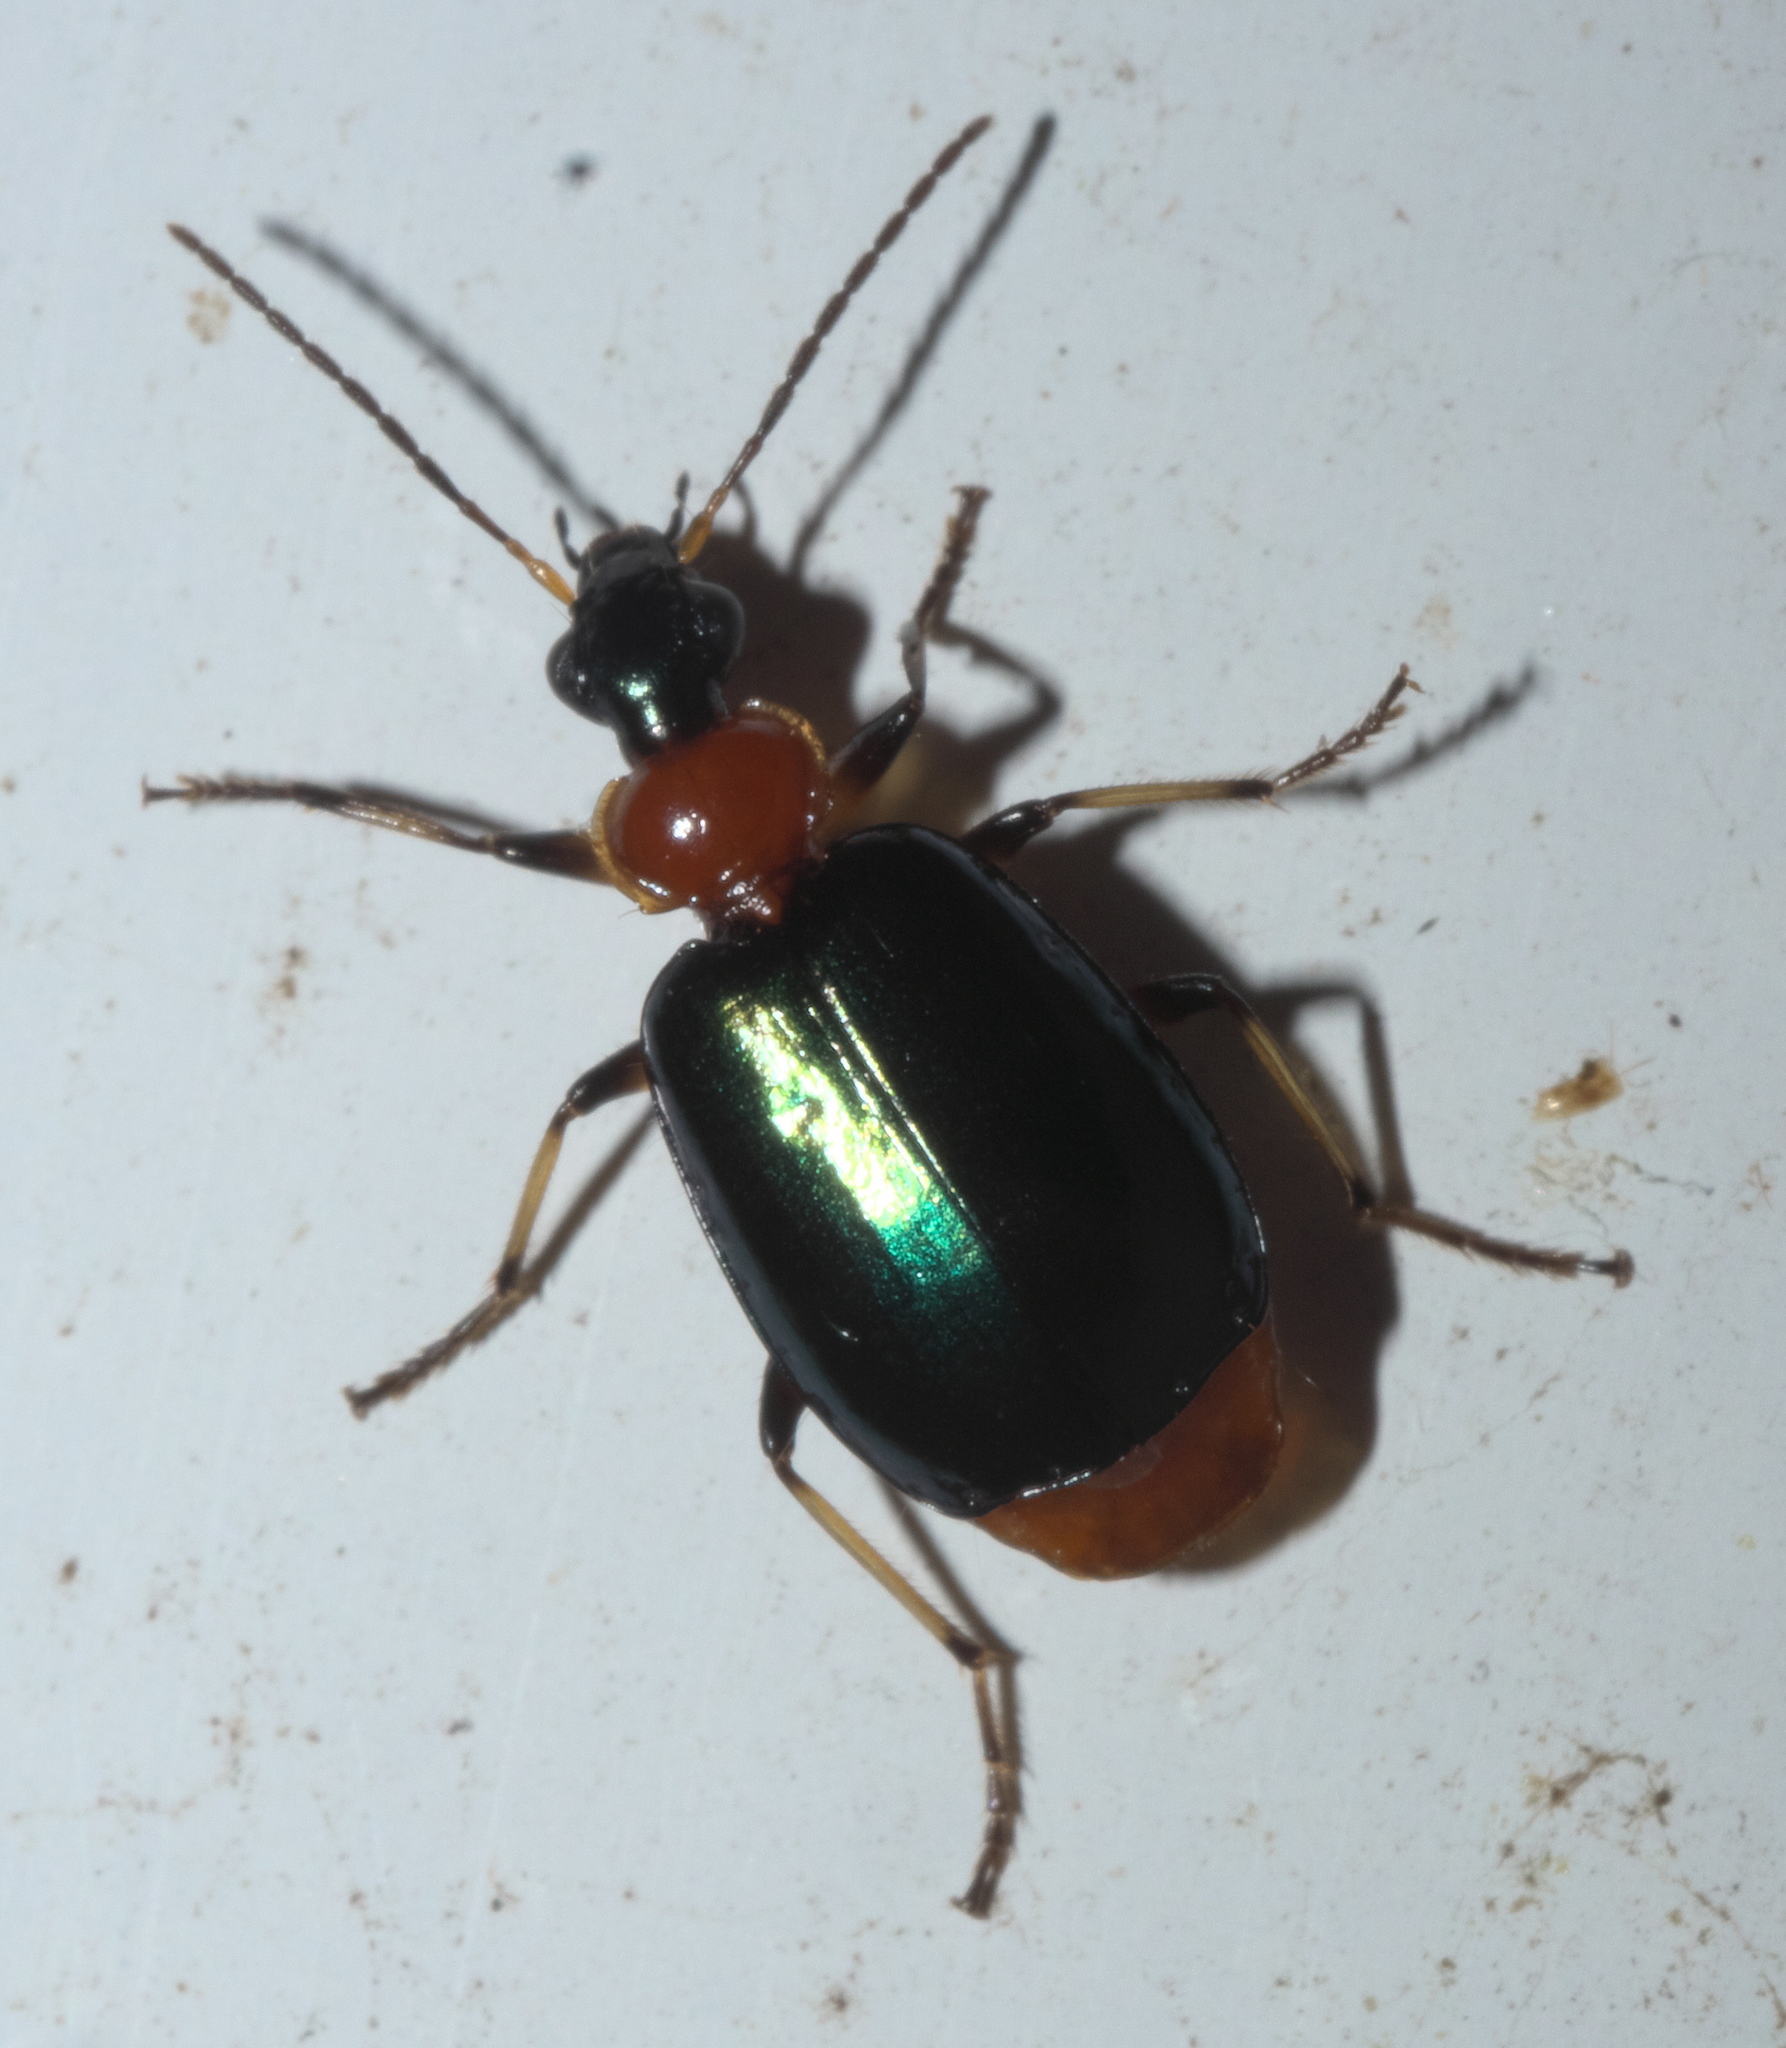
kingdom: Animalia
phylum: Arthropoda
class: Insecta
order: Coleoptera
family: Carabidae
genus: Lebia
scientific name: Lebia viridipennis
